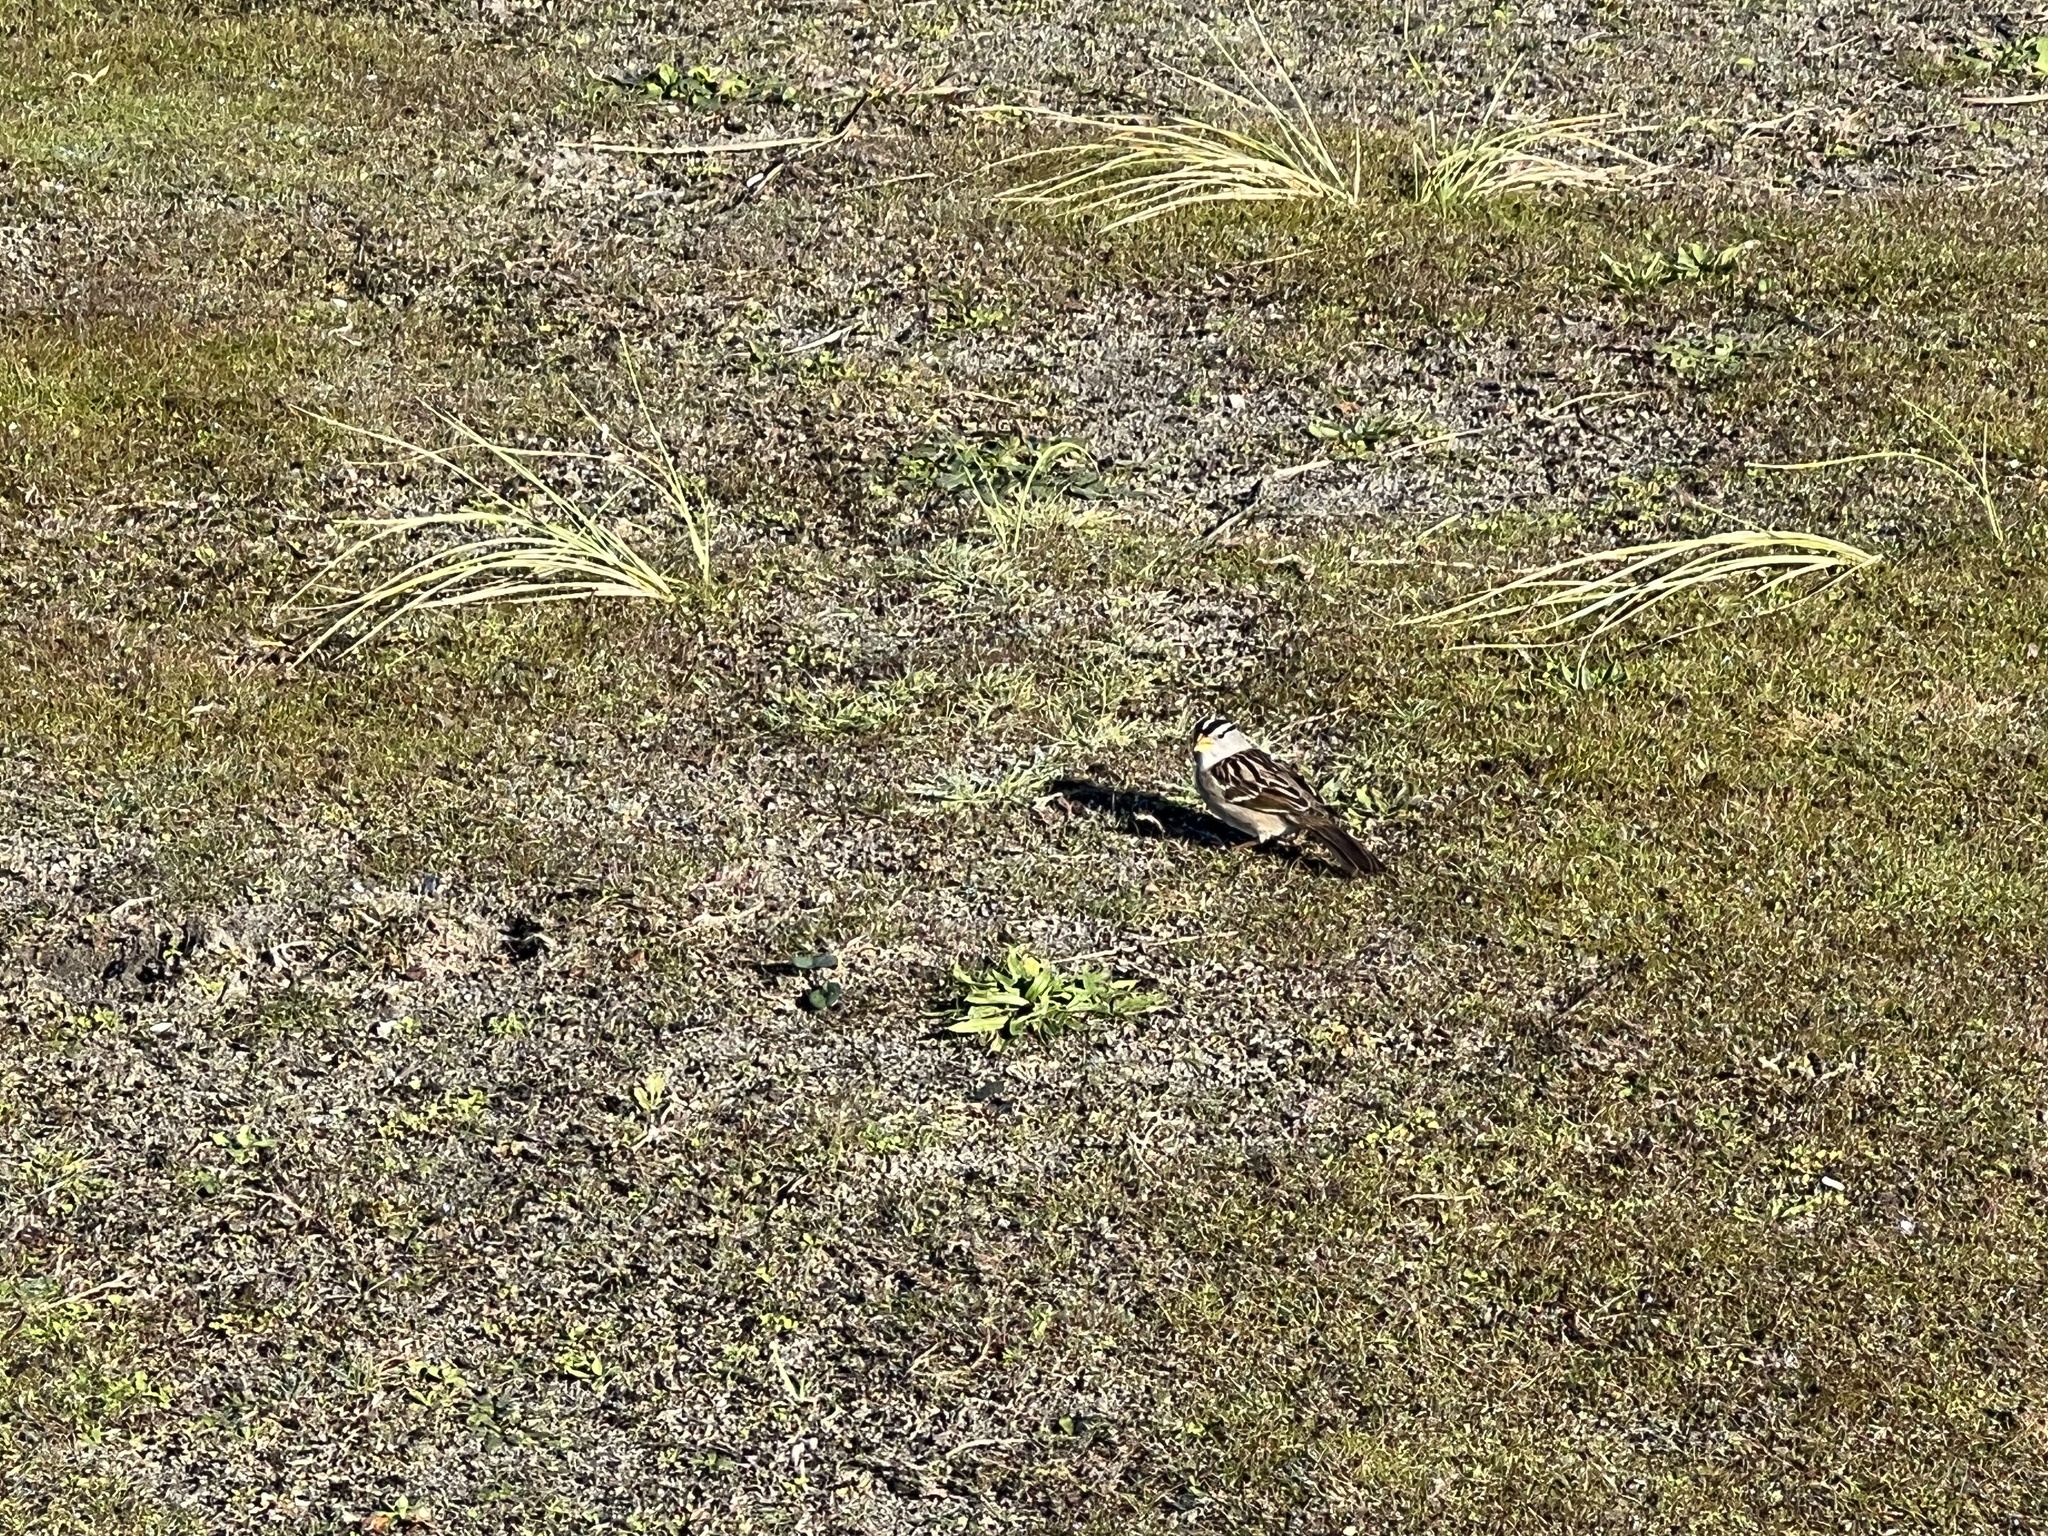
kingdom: Animalia
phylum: Chordata
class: Aves
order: Passeriformes
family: Passerellidae
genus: Zonotrichia
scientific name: Zonotrichia leucophrys
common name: White-crowned sparrow
